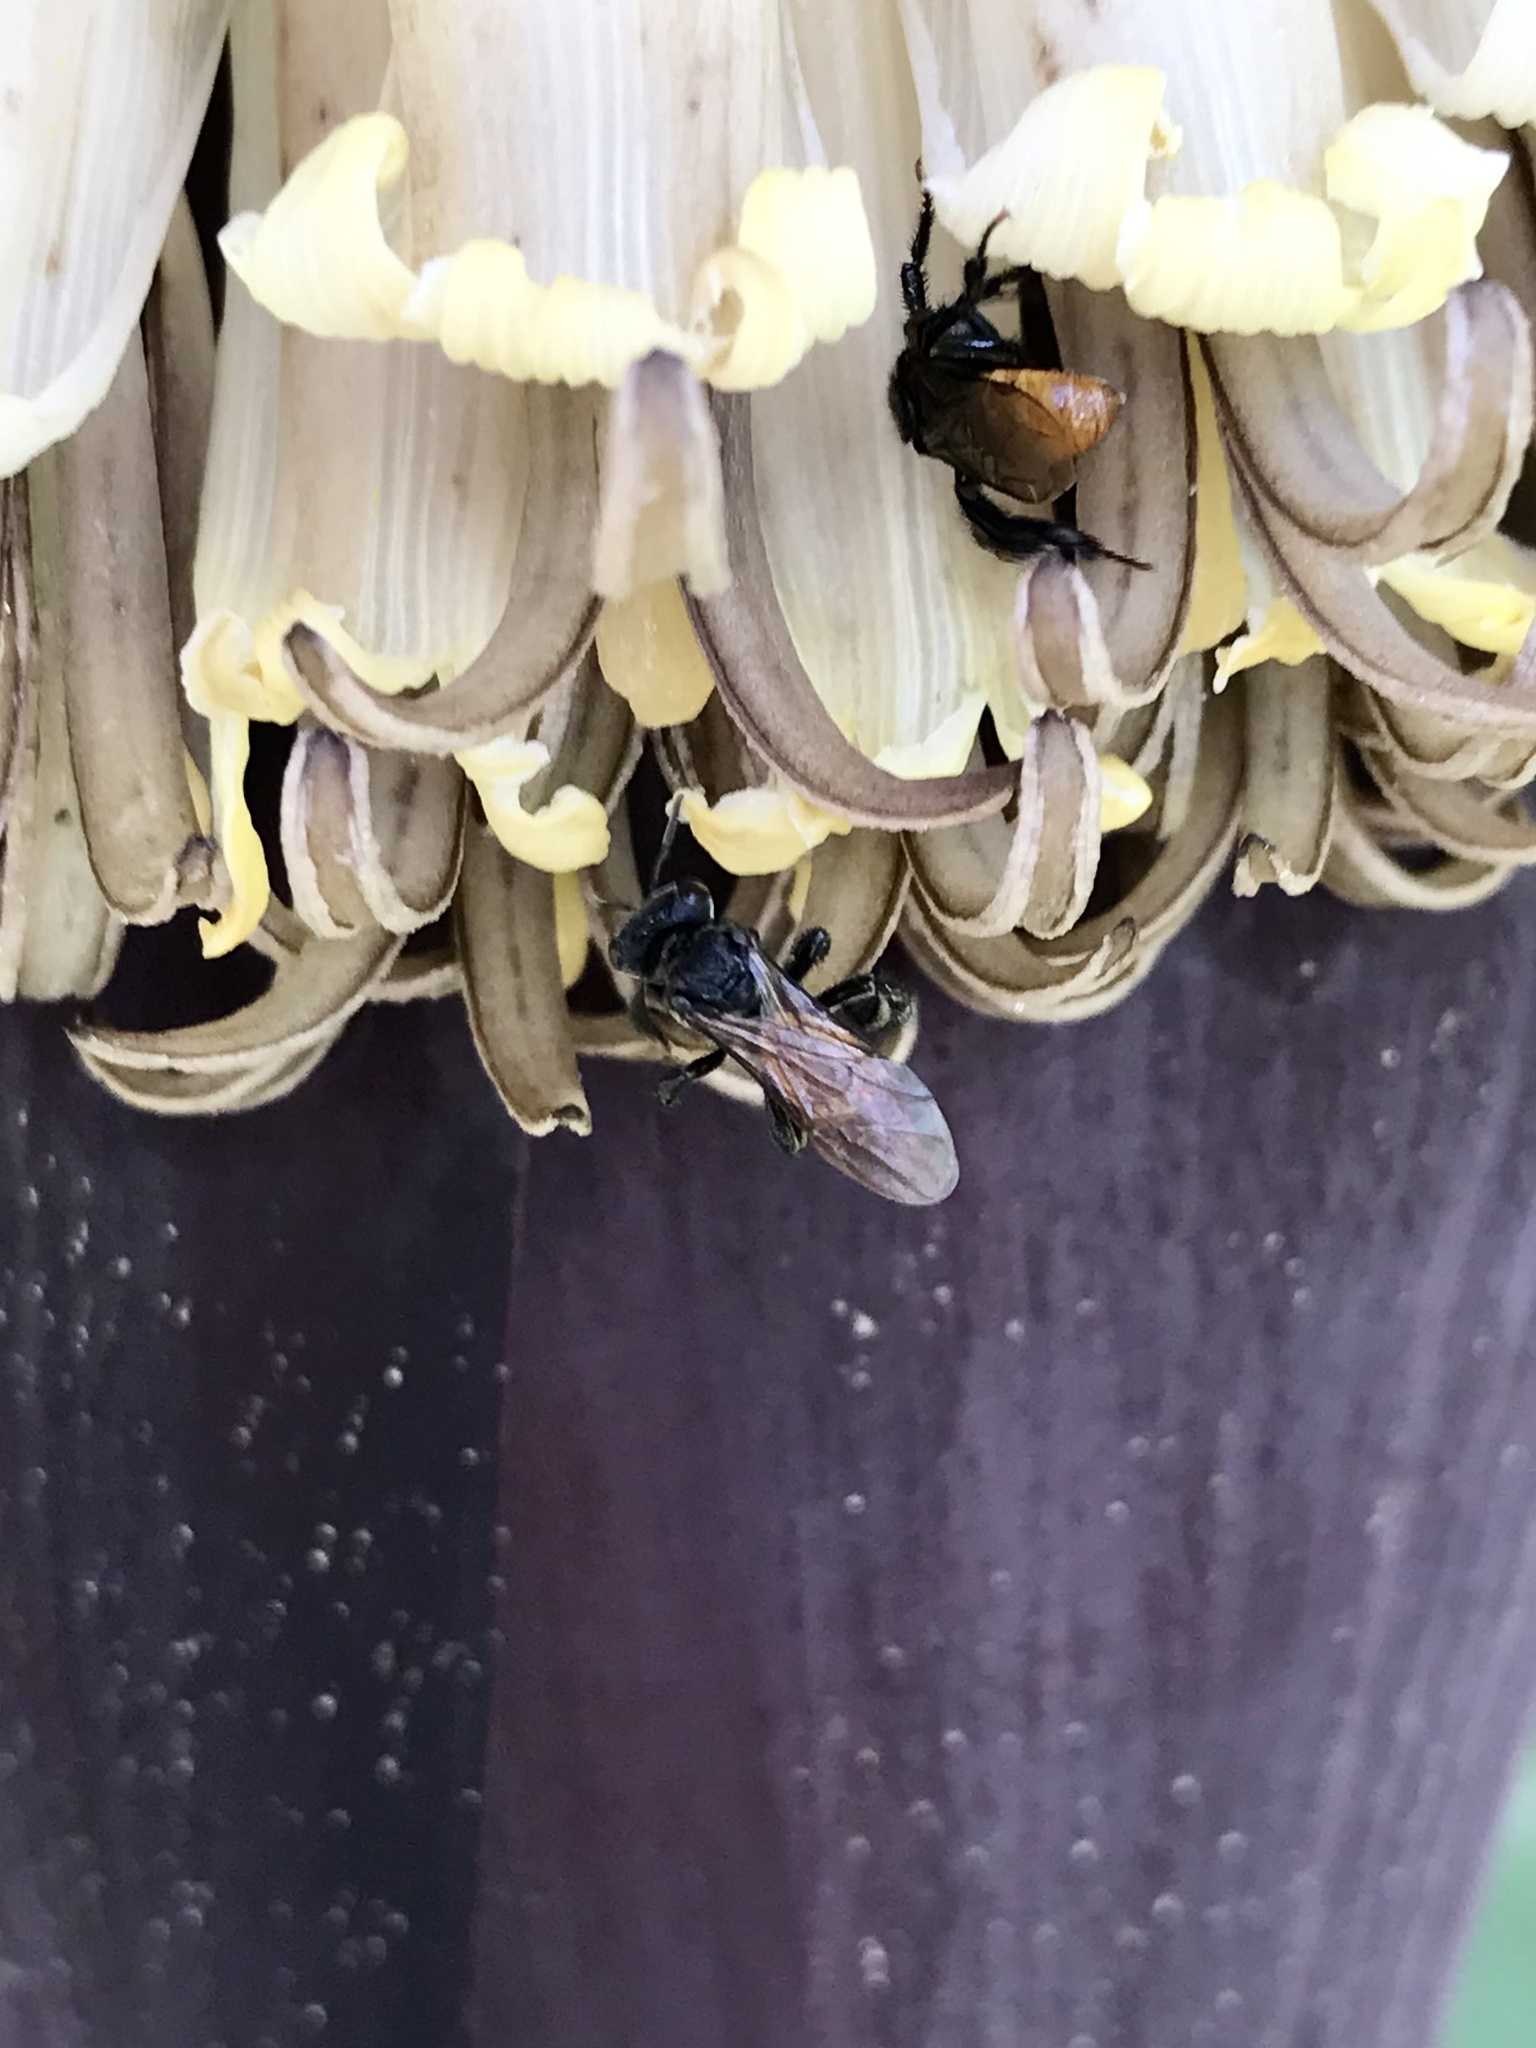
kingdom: Animalia
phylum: Arthropoda
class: Insecta
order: Hymenoptera
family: Apidae
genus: Trigona
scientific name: Trigona fulviventris
